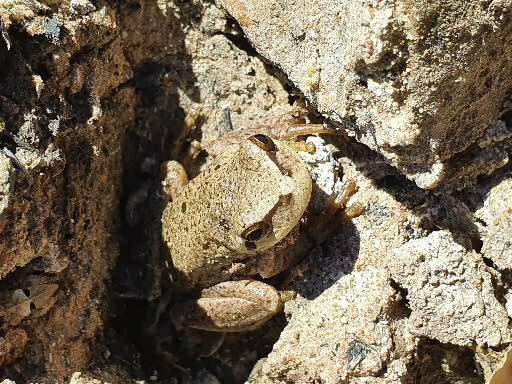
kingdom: Animalia
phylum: Chordata
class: Amphibia
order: Anura
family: Hylidae
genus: Hyla
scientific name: Hyla meridionalis
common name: Stripeless tree frog
